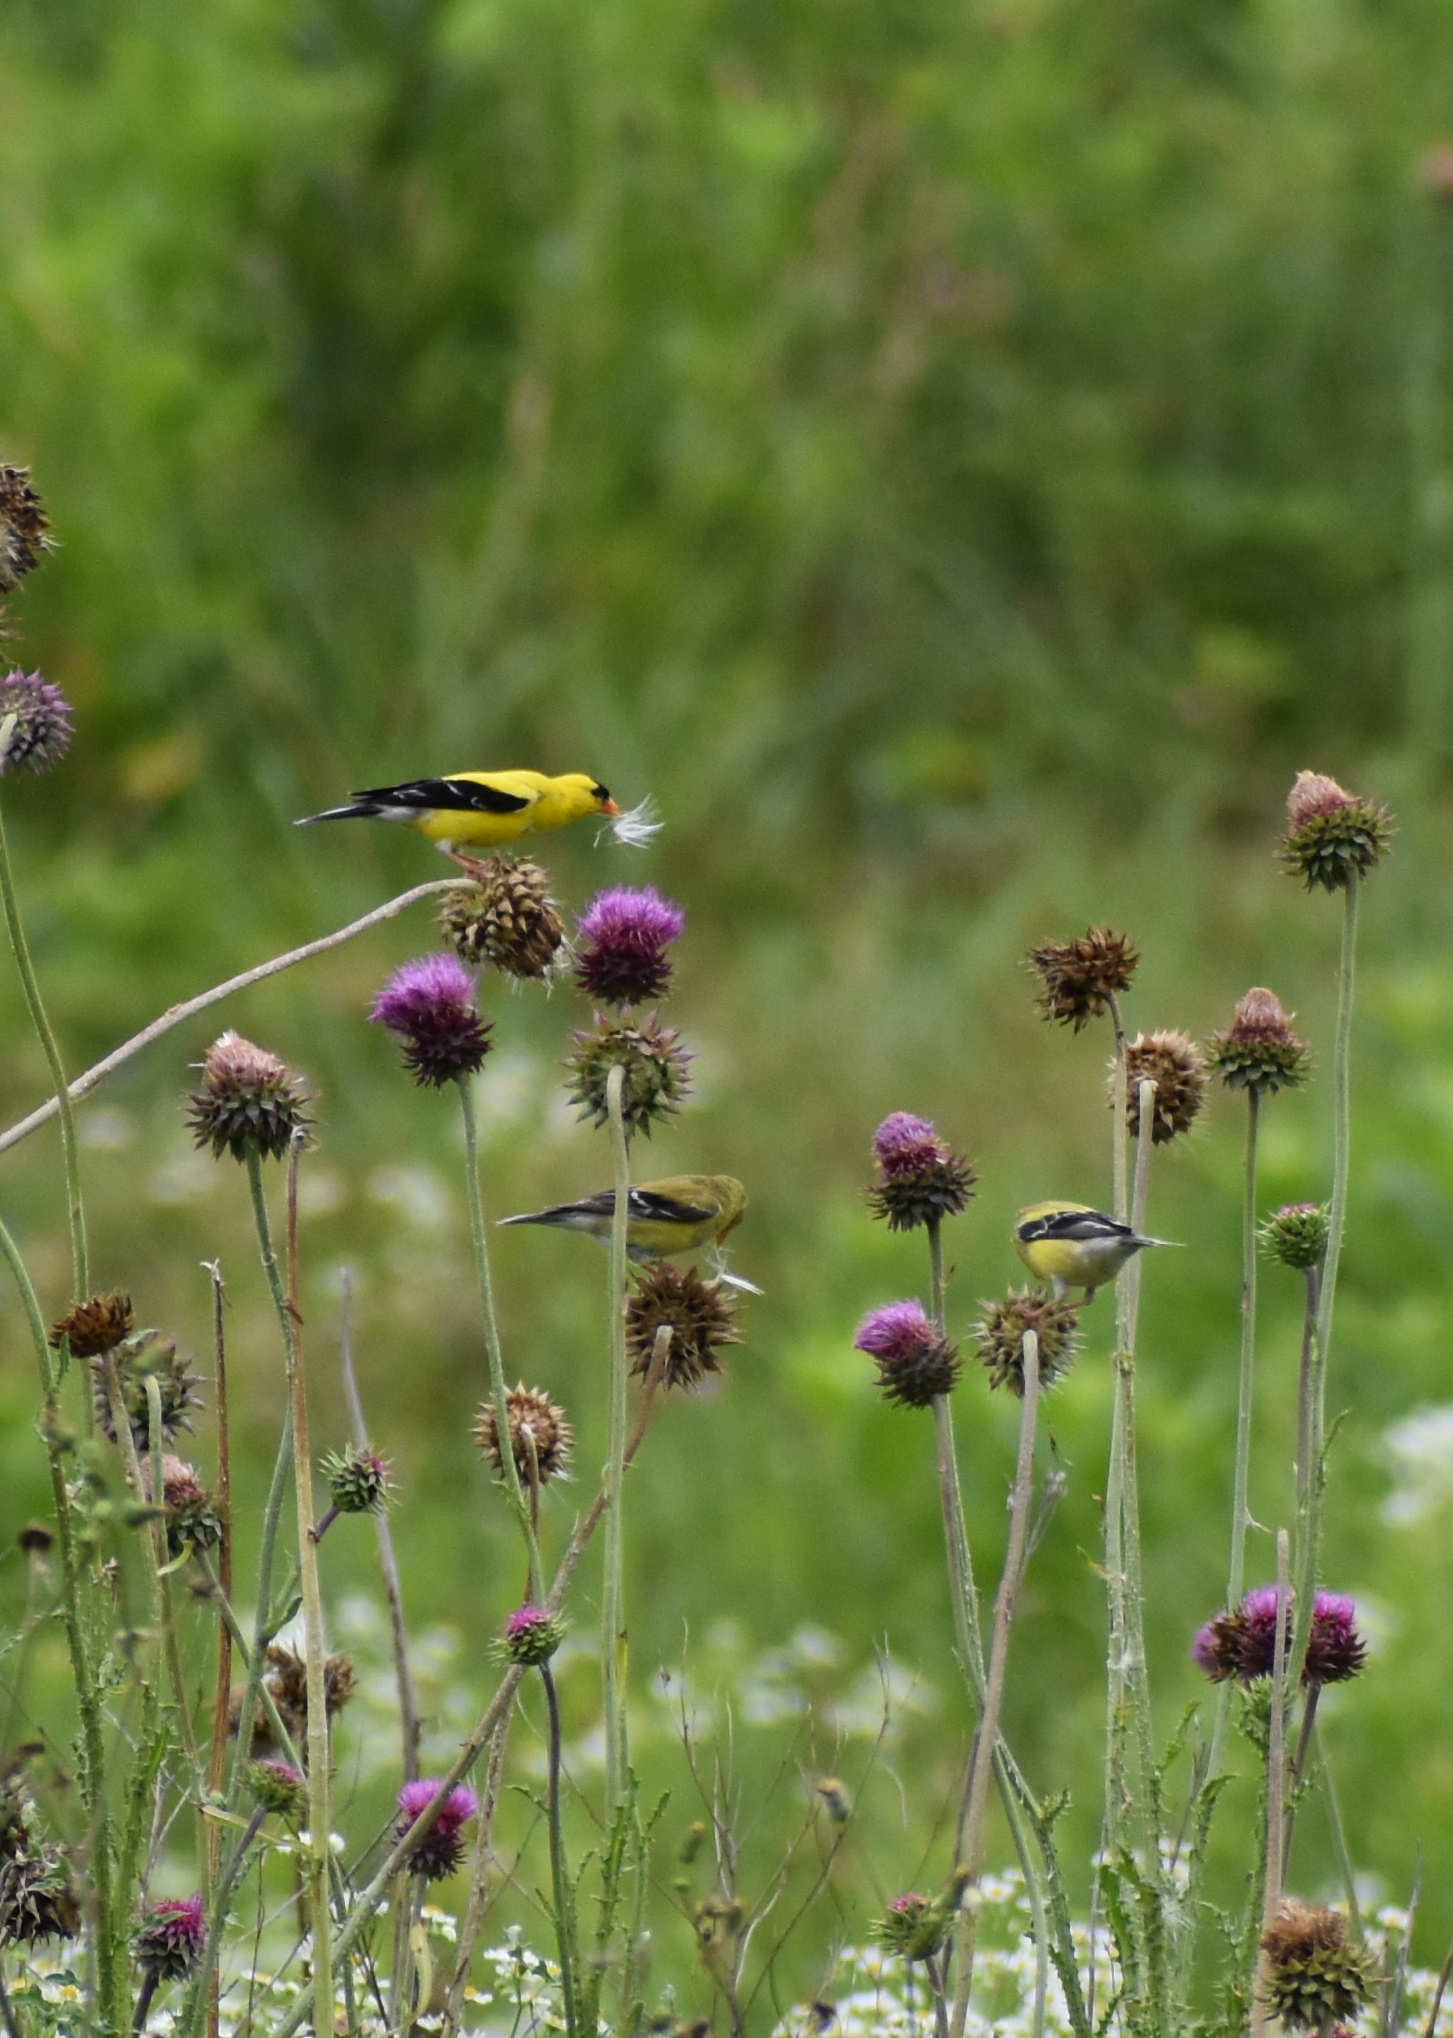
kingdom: Animalia
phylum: Chordata
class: Aves
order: Passeriformes
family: Fringillidae
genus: Spinus
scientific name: Spinus tristis
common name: American goldfinch
